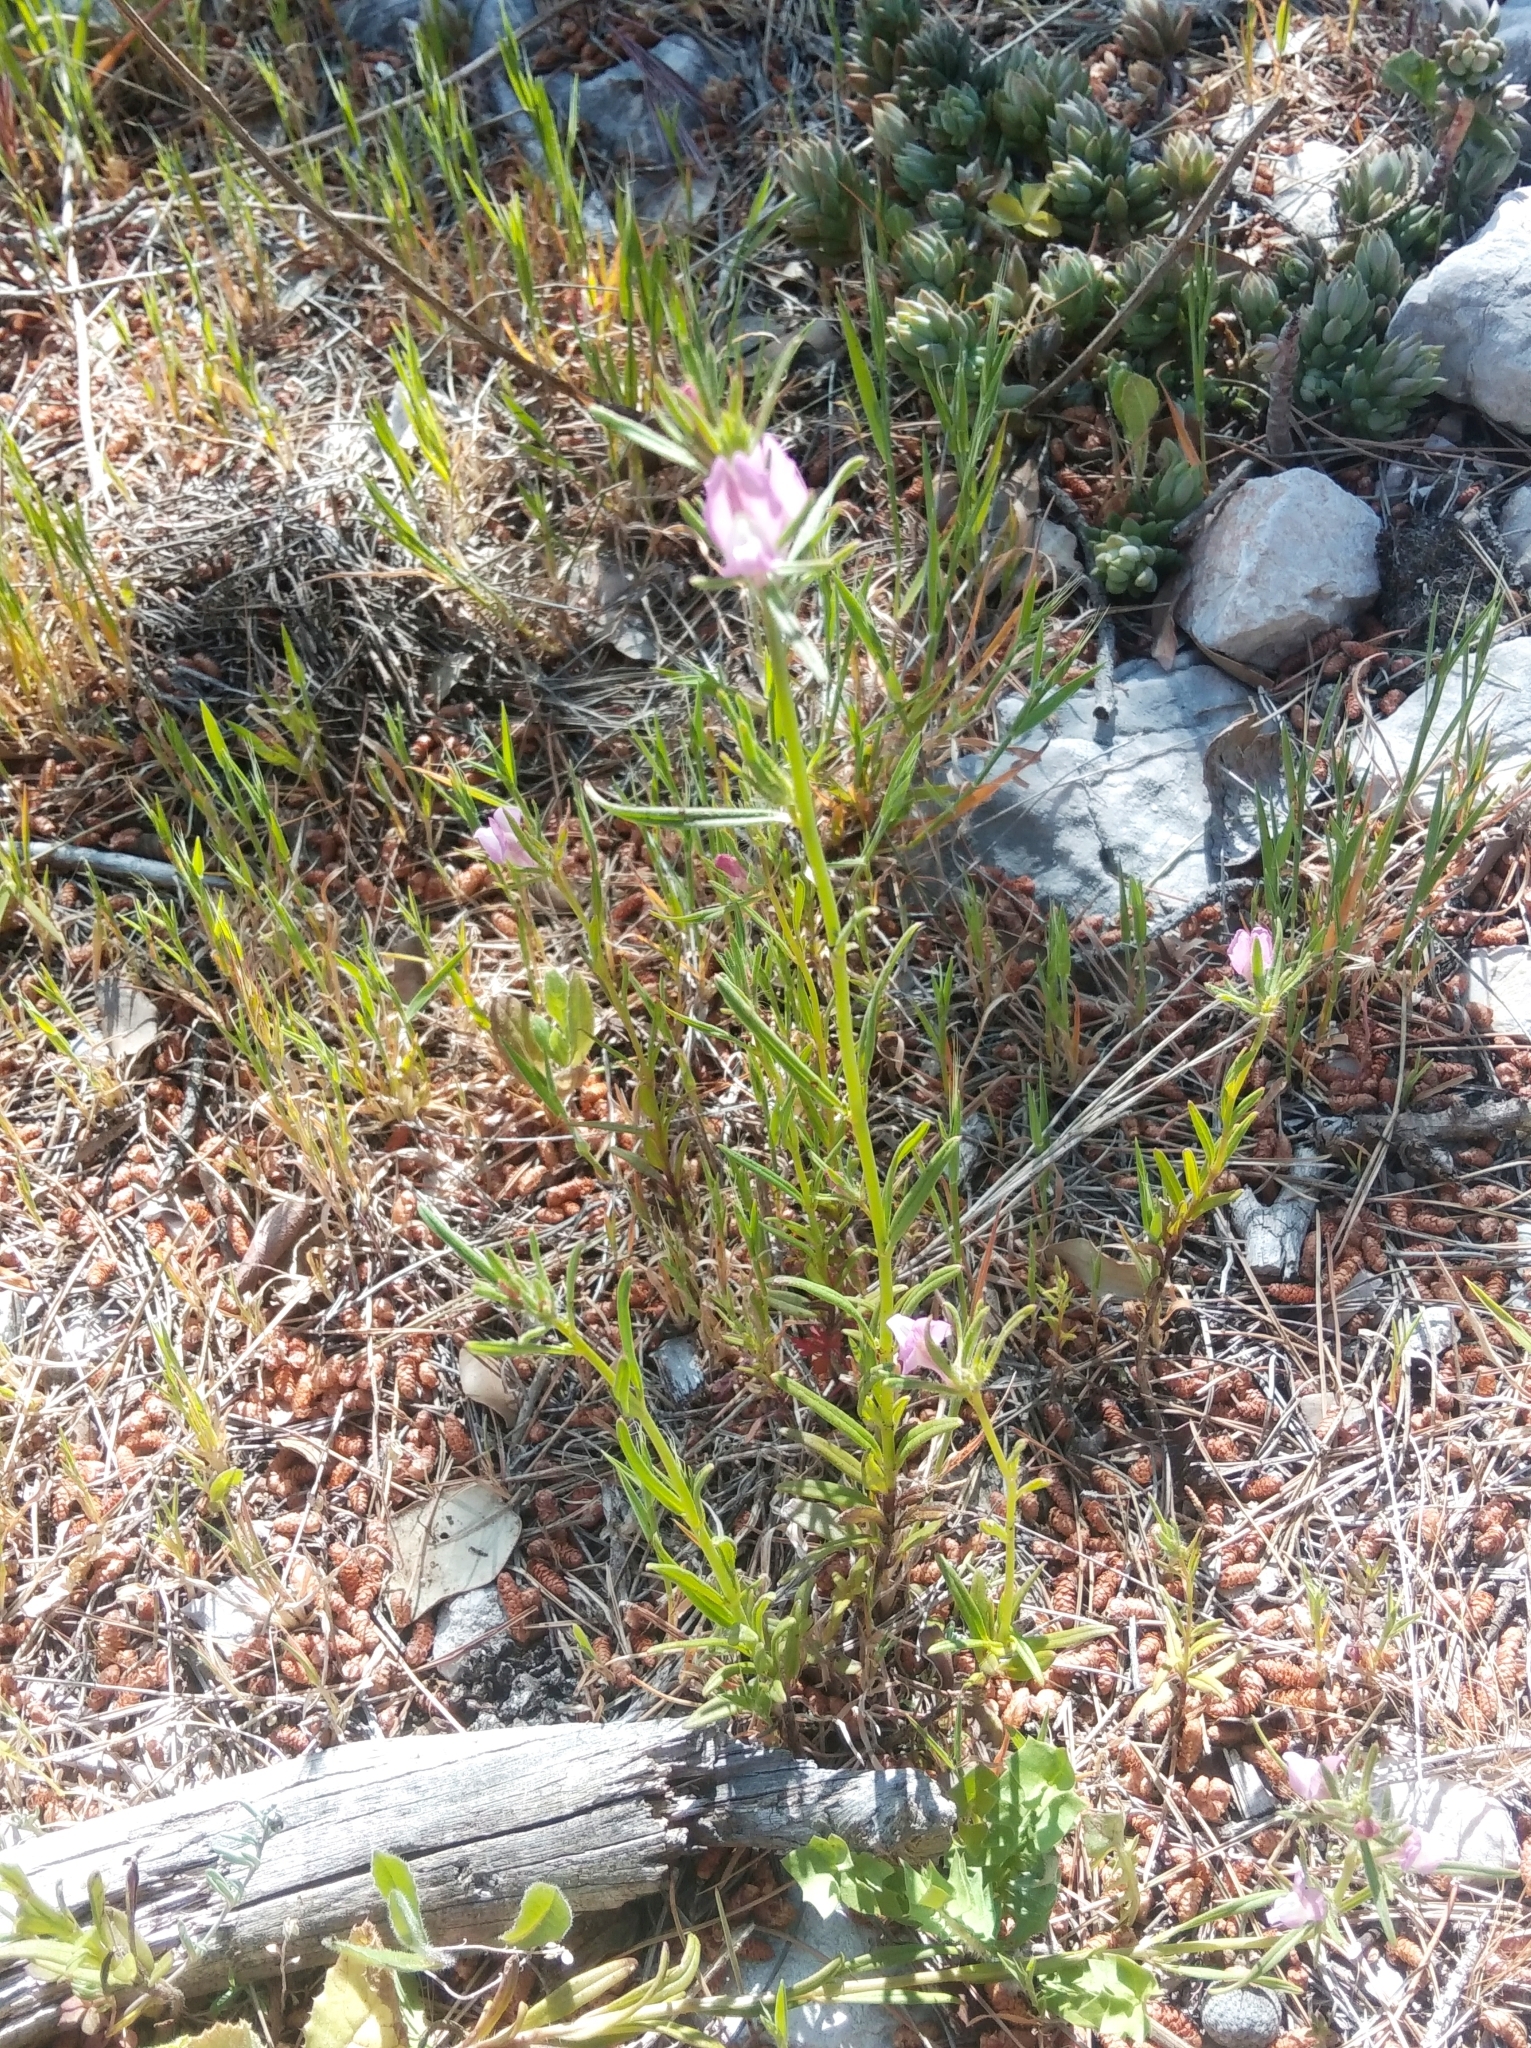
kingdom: Plantae
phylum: Tracheophyta
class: Magnoliopsida
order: Lamiales
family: Plantaginaceae
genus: Misopates
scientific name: Misopates orontium
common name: Weasel's-snout
